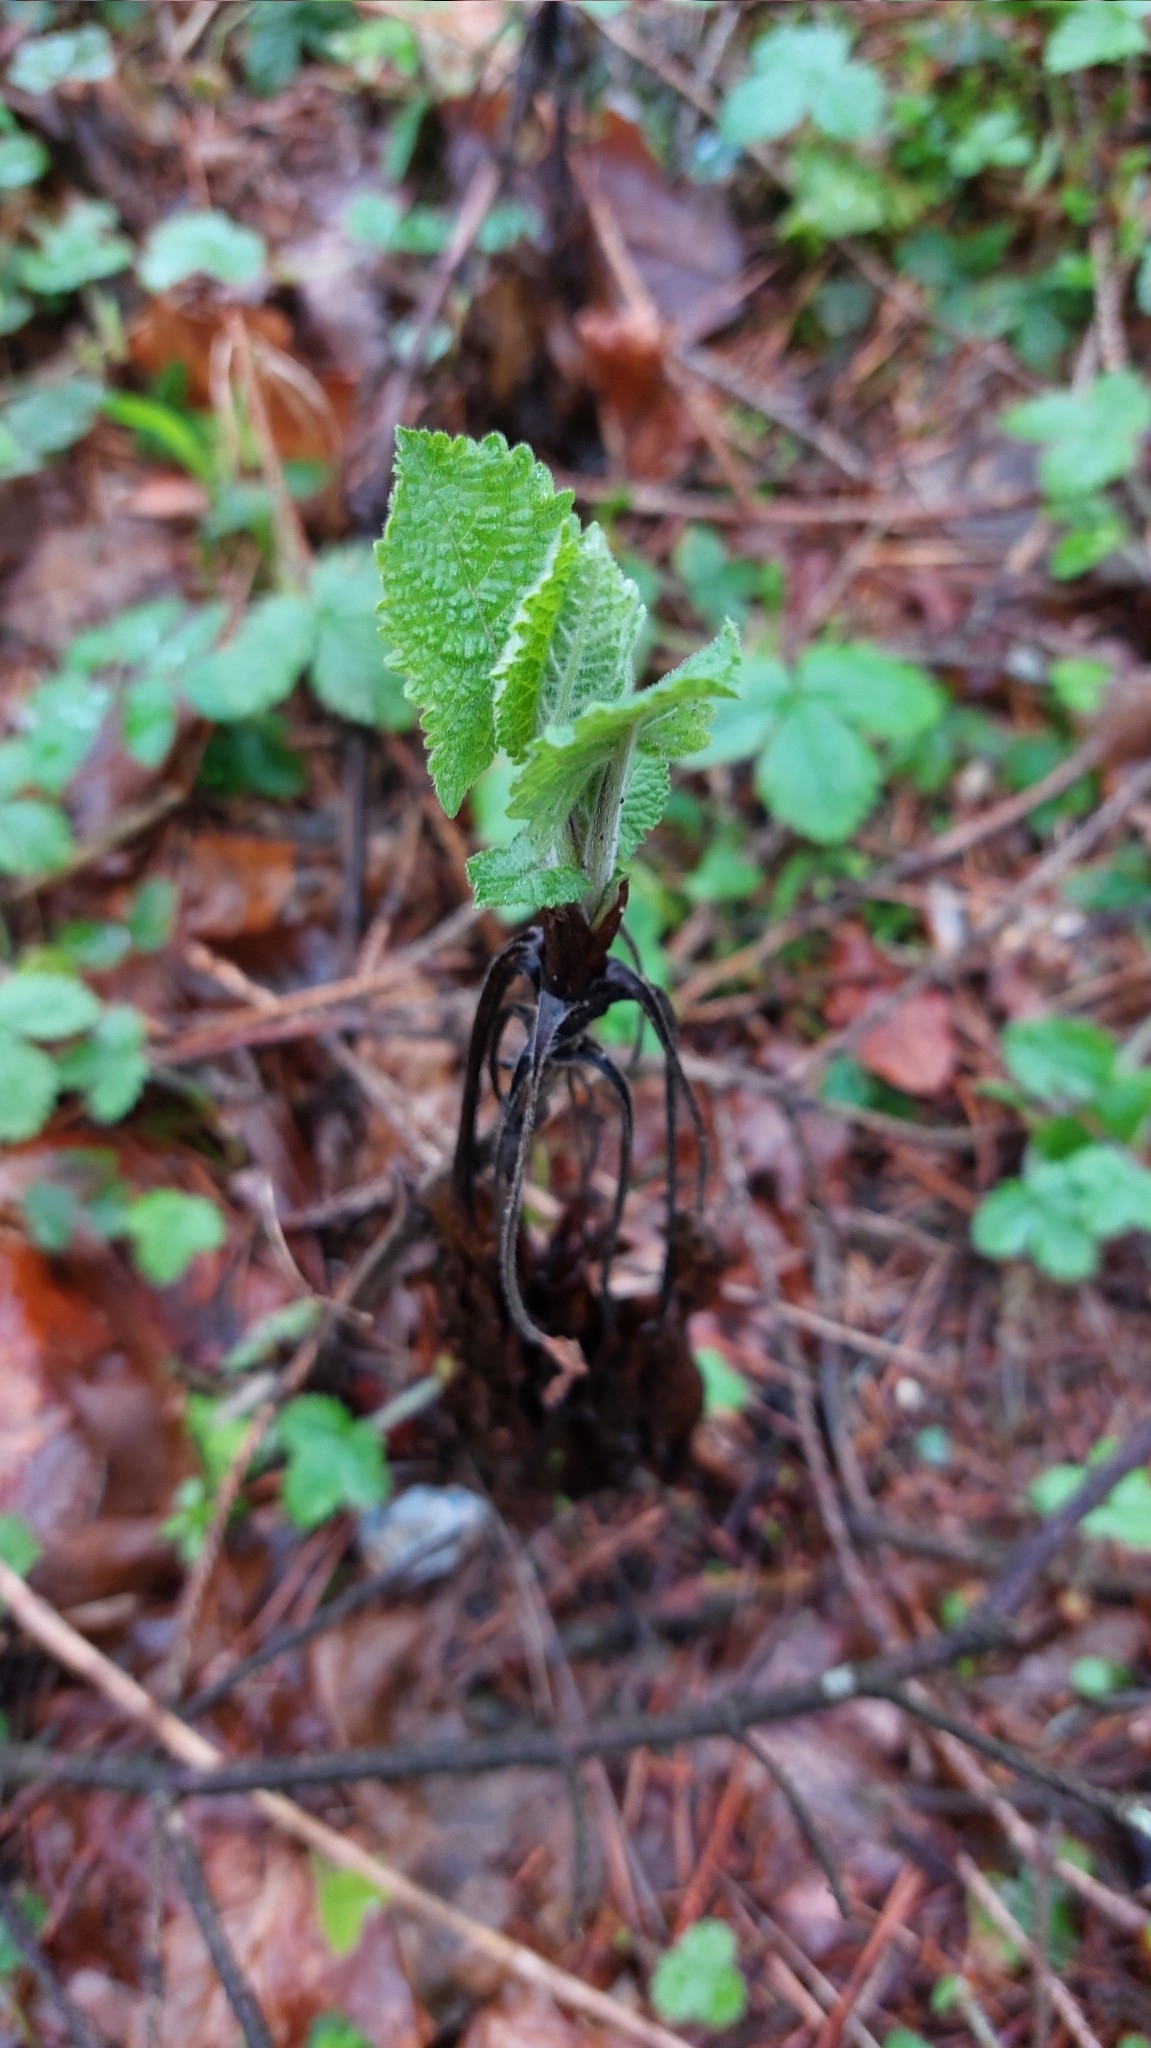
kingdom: Plantae
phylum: Tracheophyta
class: Magnoliopsida
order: Lamiales
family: Lamiaceae
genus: Salvia
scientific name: Salvia glutinosa
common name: Sticky clary
